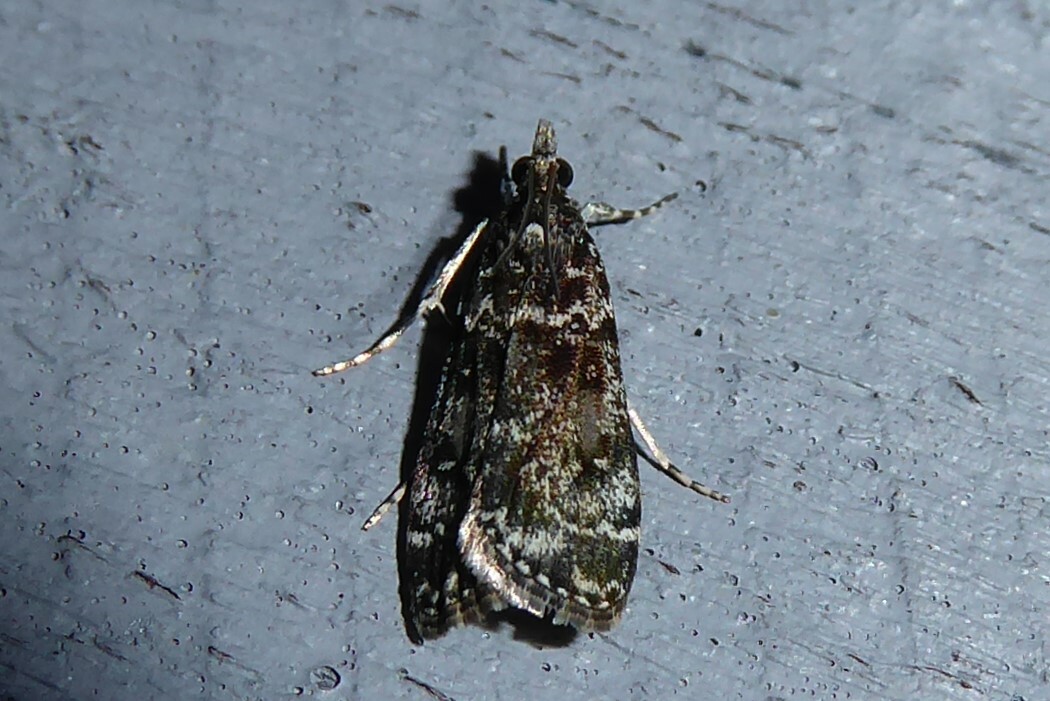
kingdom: Animalia
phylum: Arthropoda
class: Insecta
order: Lepidoptera
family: Crambidae
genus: Eudonia
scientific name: Eudonia philerga
